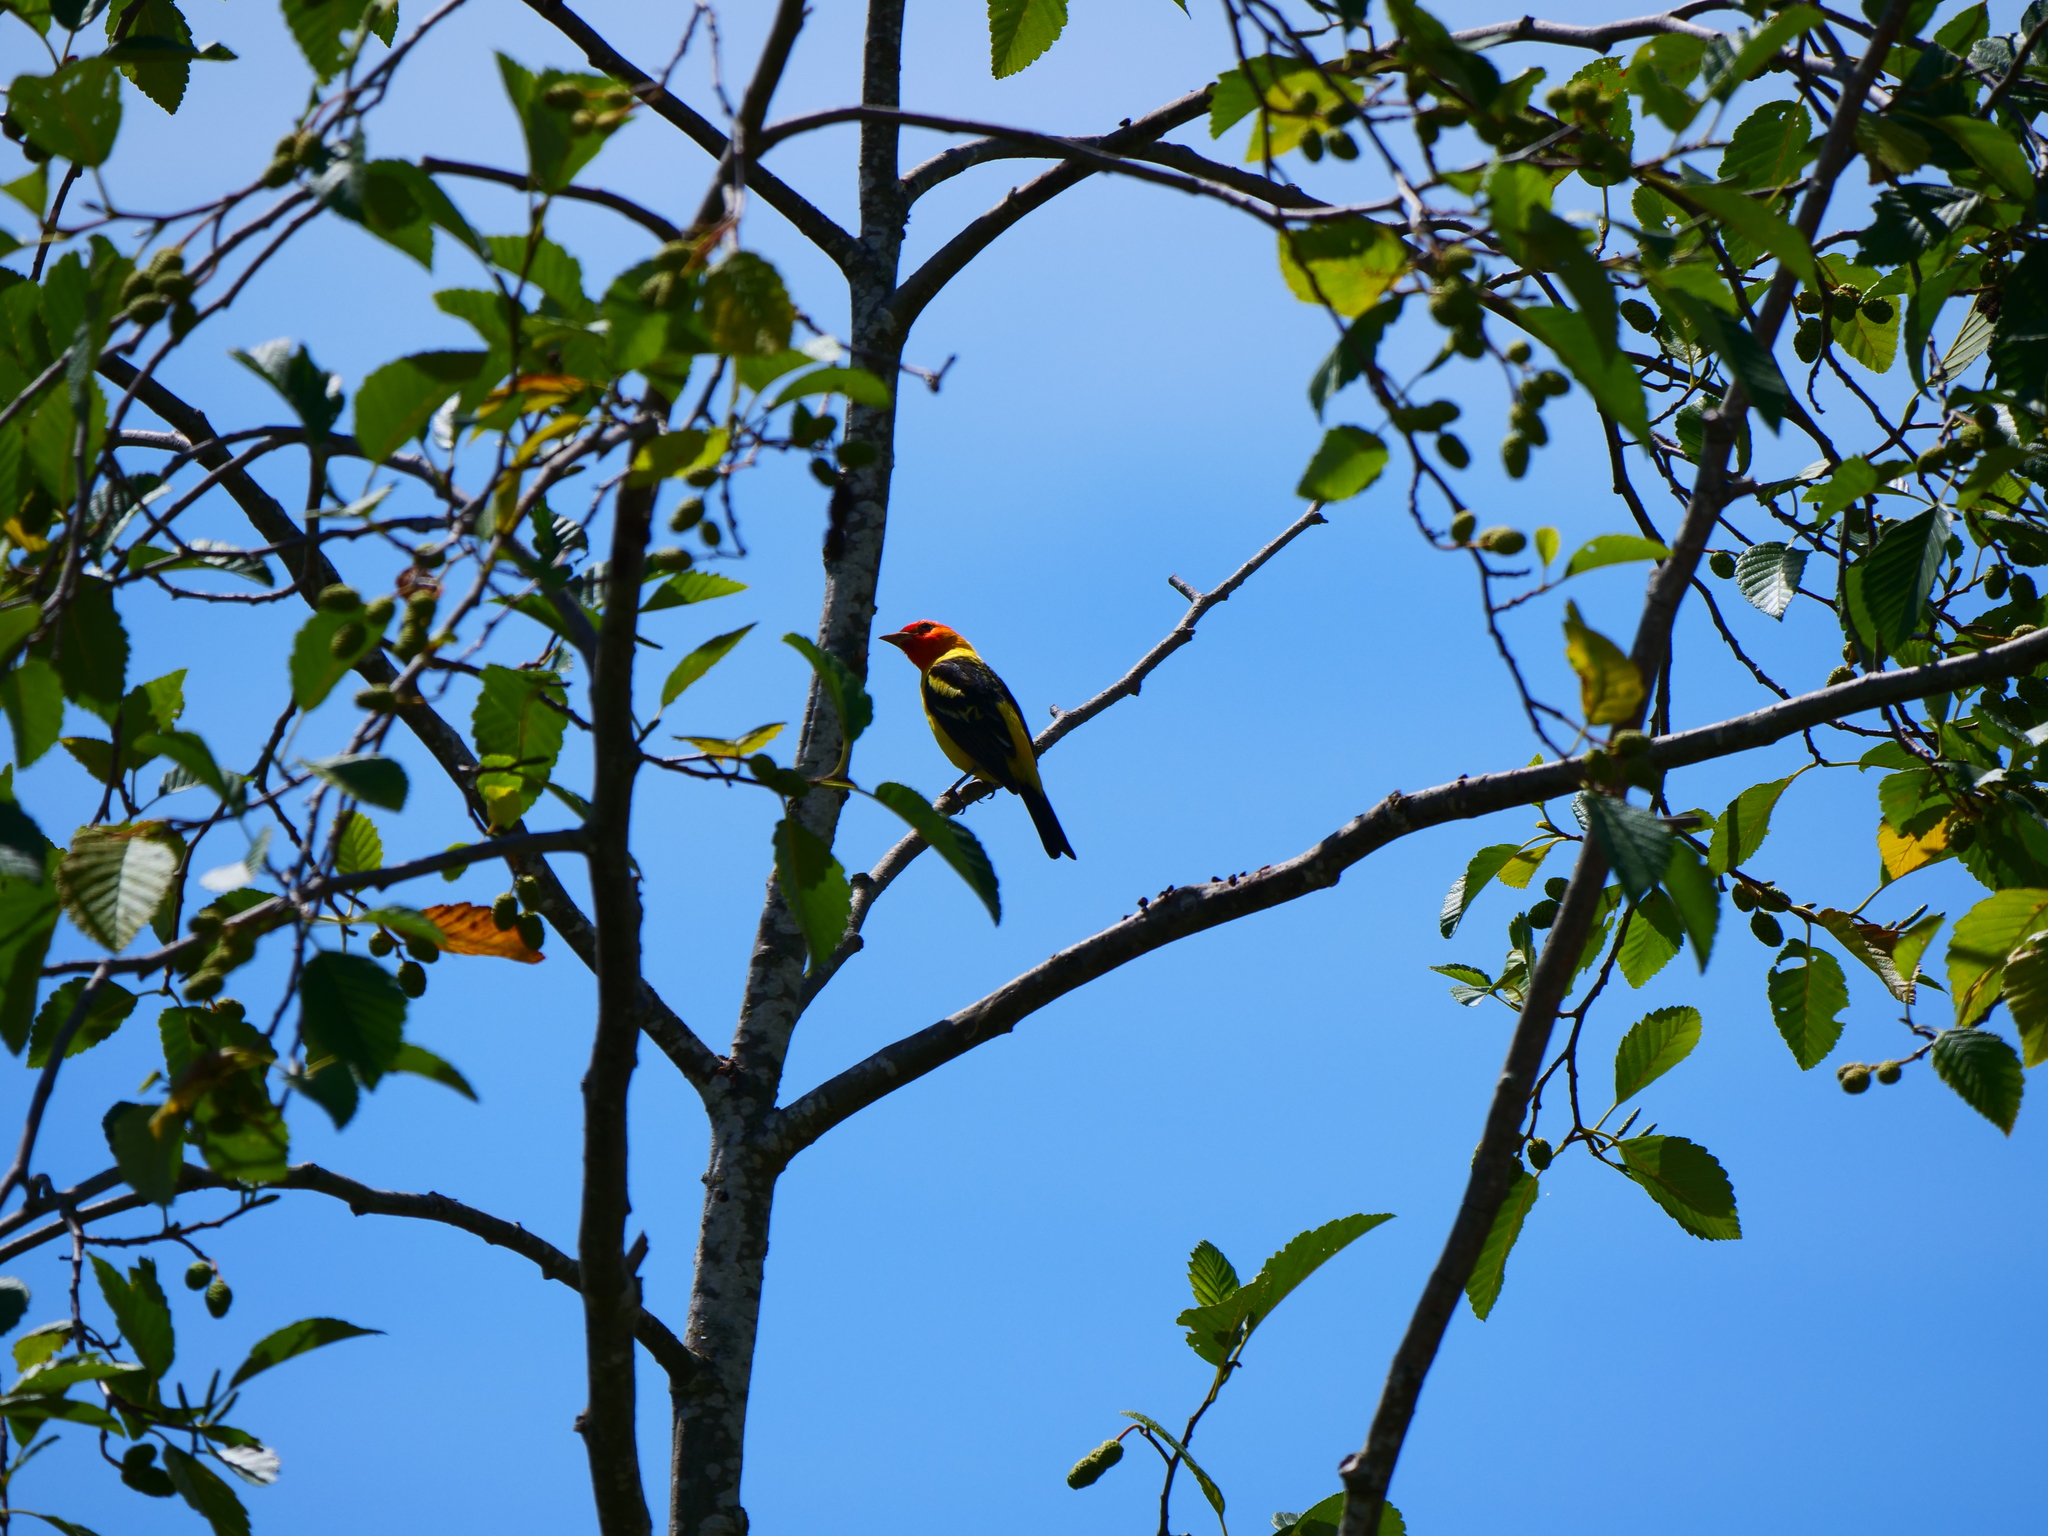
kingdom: Animalia
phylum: Chordata
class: Aves
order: Passeriformes
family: Cardinalidae
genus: Piranga
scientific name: Piranga ludoviciana
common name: Western tanager
